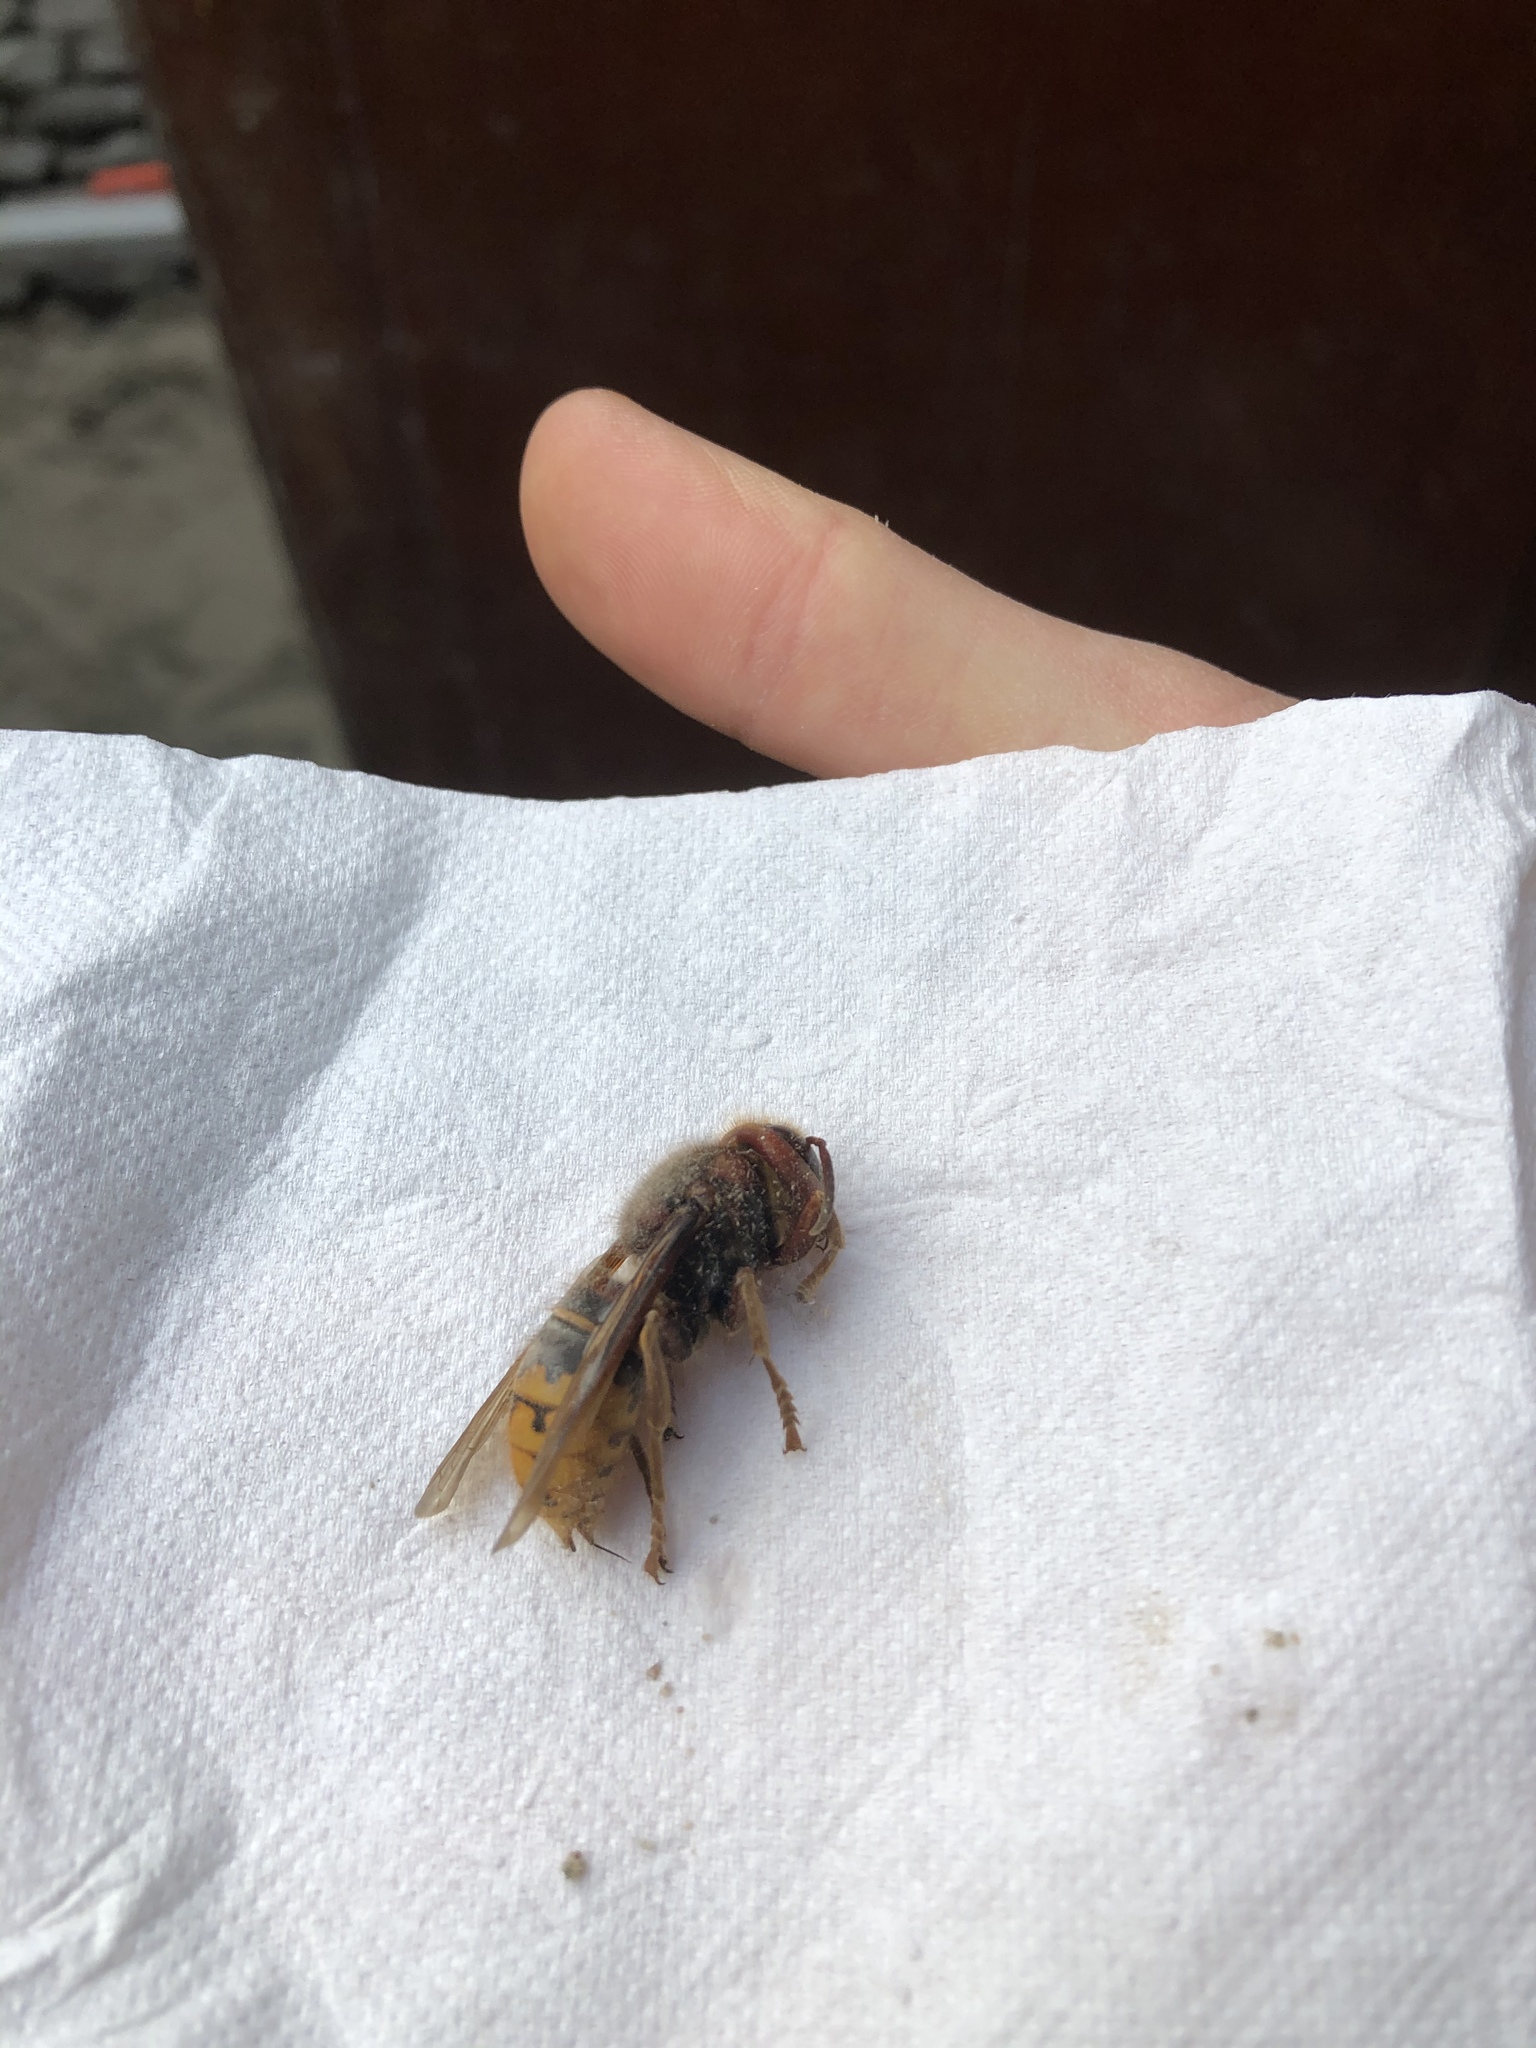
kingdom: Animalia
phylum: Arthropoda
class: Insecta
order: Hymenoptera
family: Vespidae
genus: Vespa
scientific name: Vespa crabro
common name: Hornet
